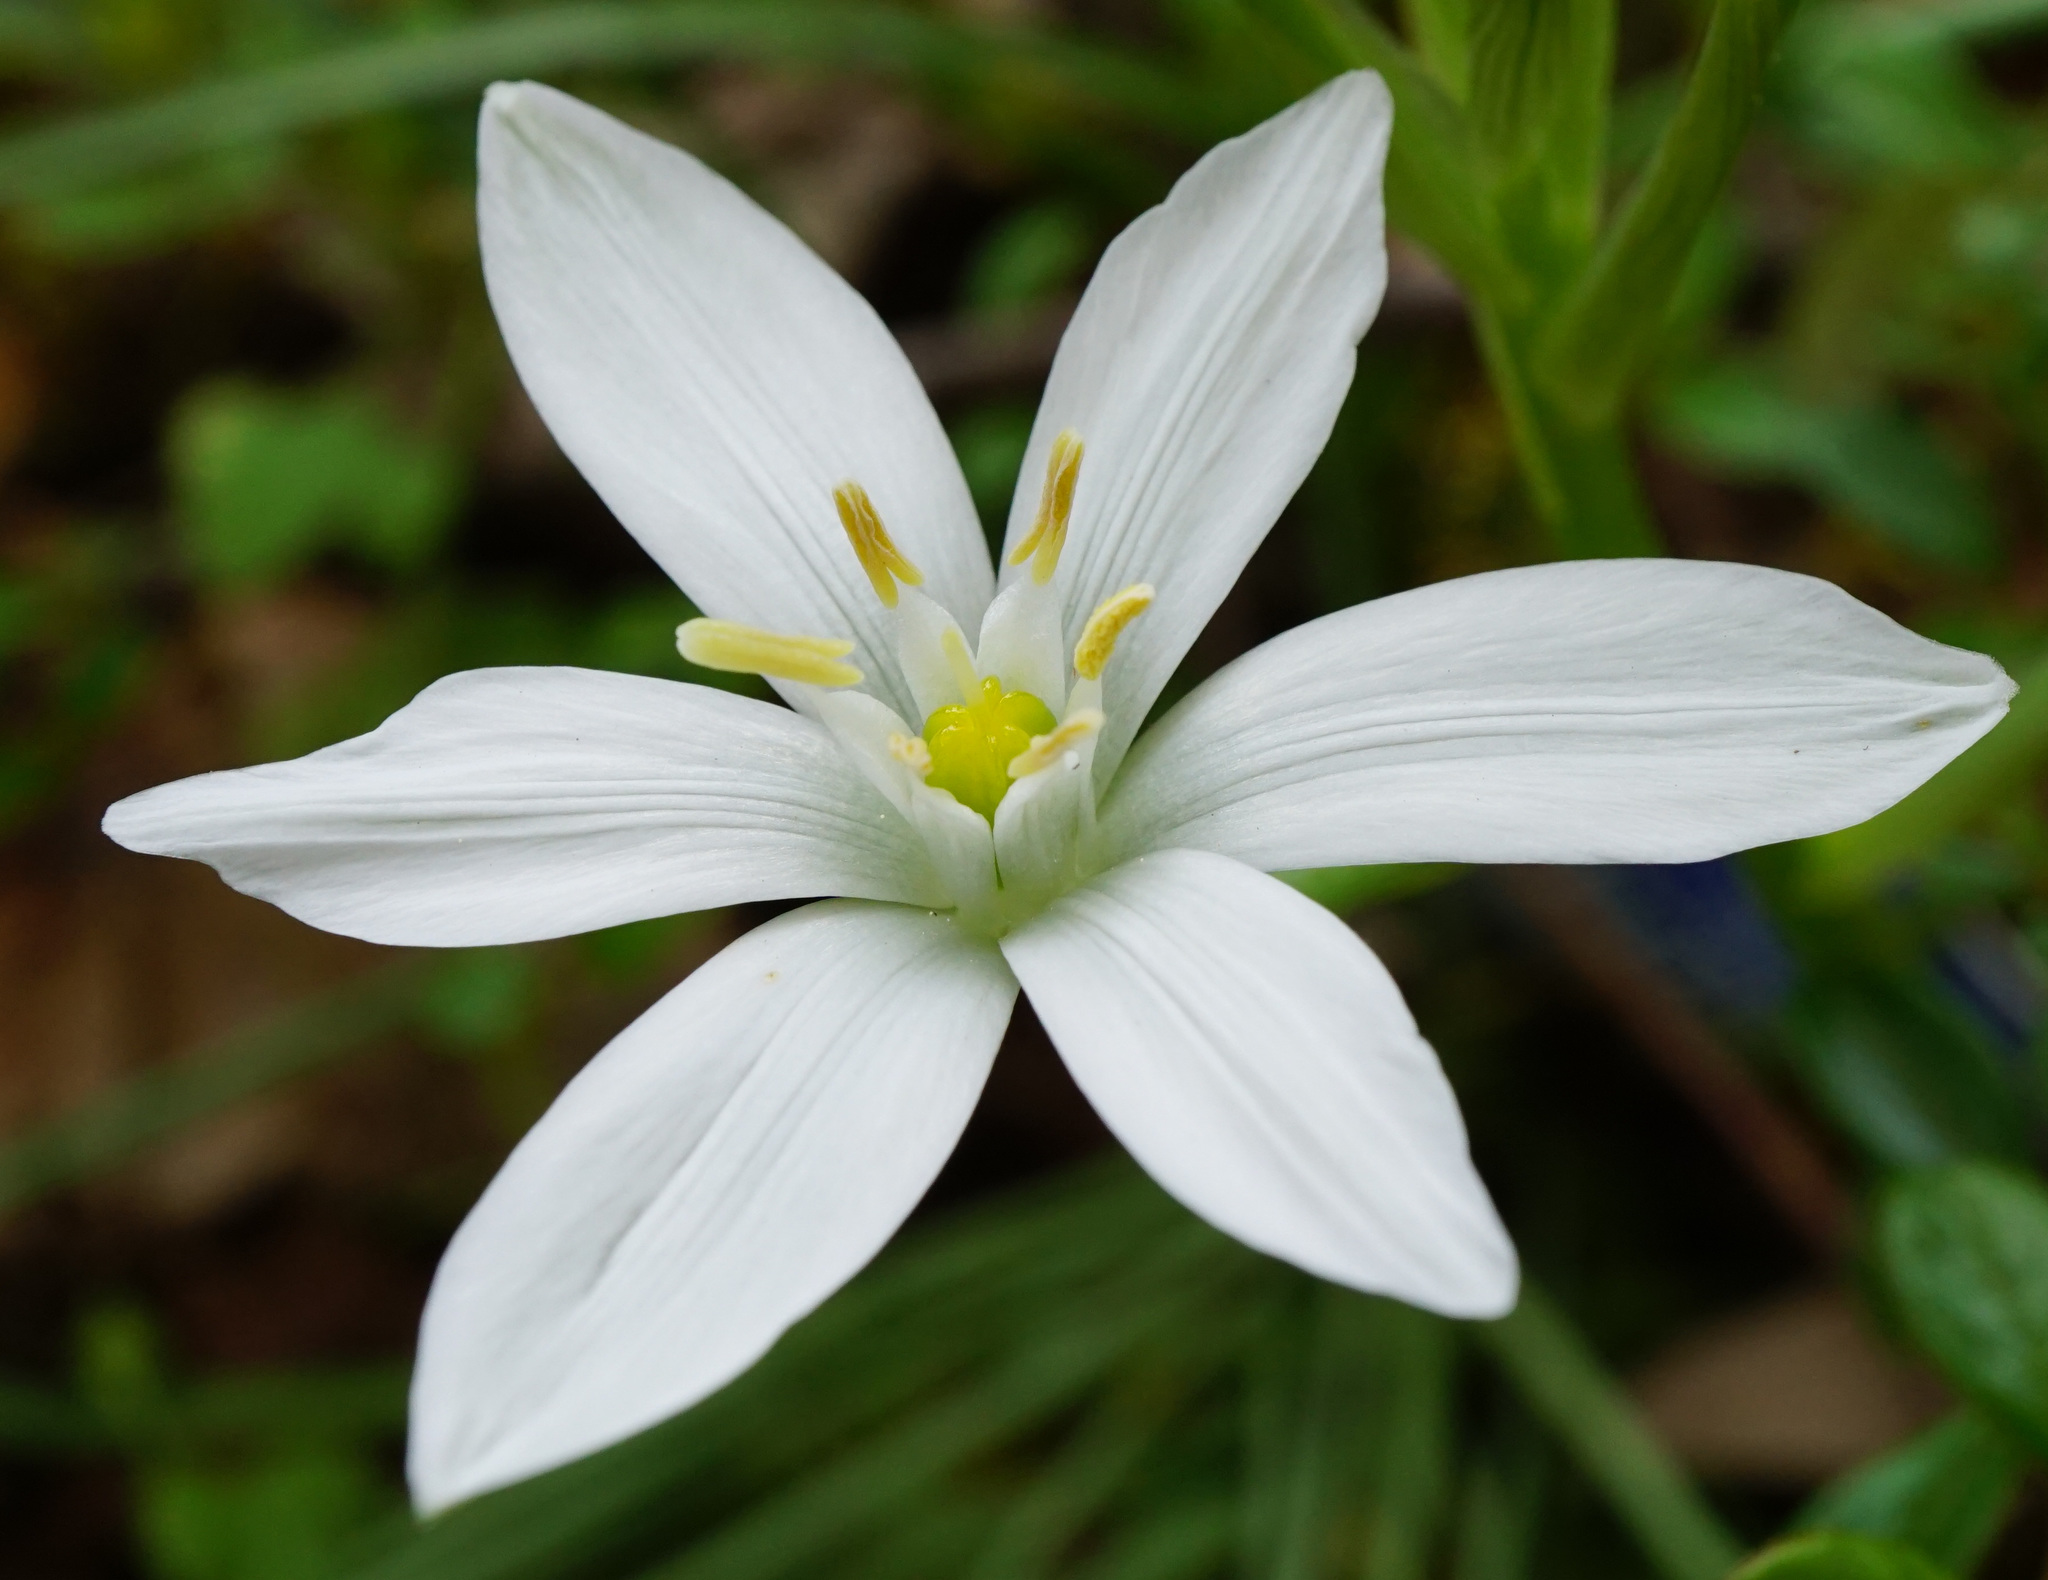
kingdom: Plantae
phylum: Tracheophyta
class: Liliopsida
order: Asparagales
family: Asparagaceae
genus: Ornithogalum
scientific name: Ornithogalum orthophyllum
